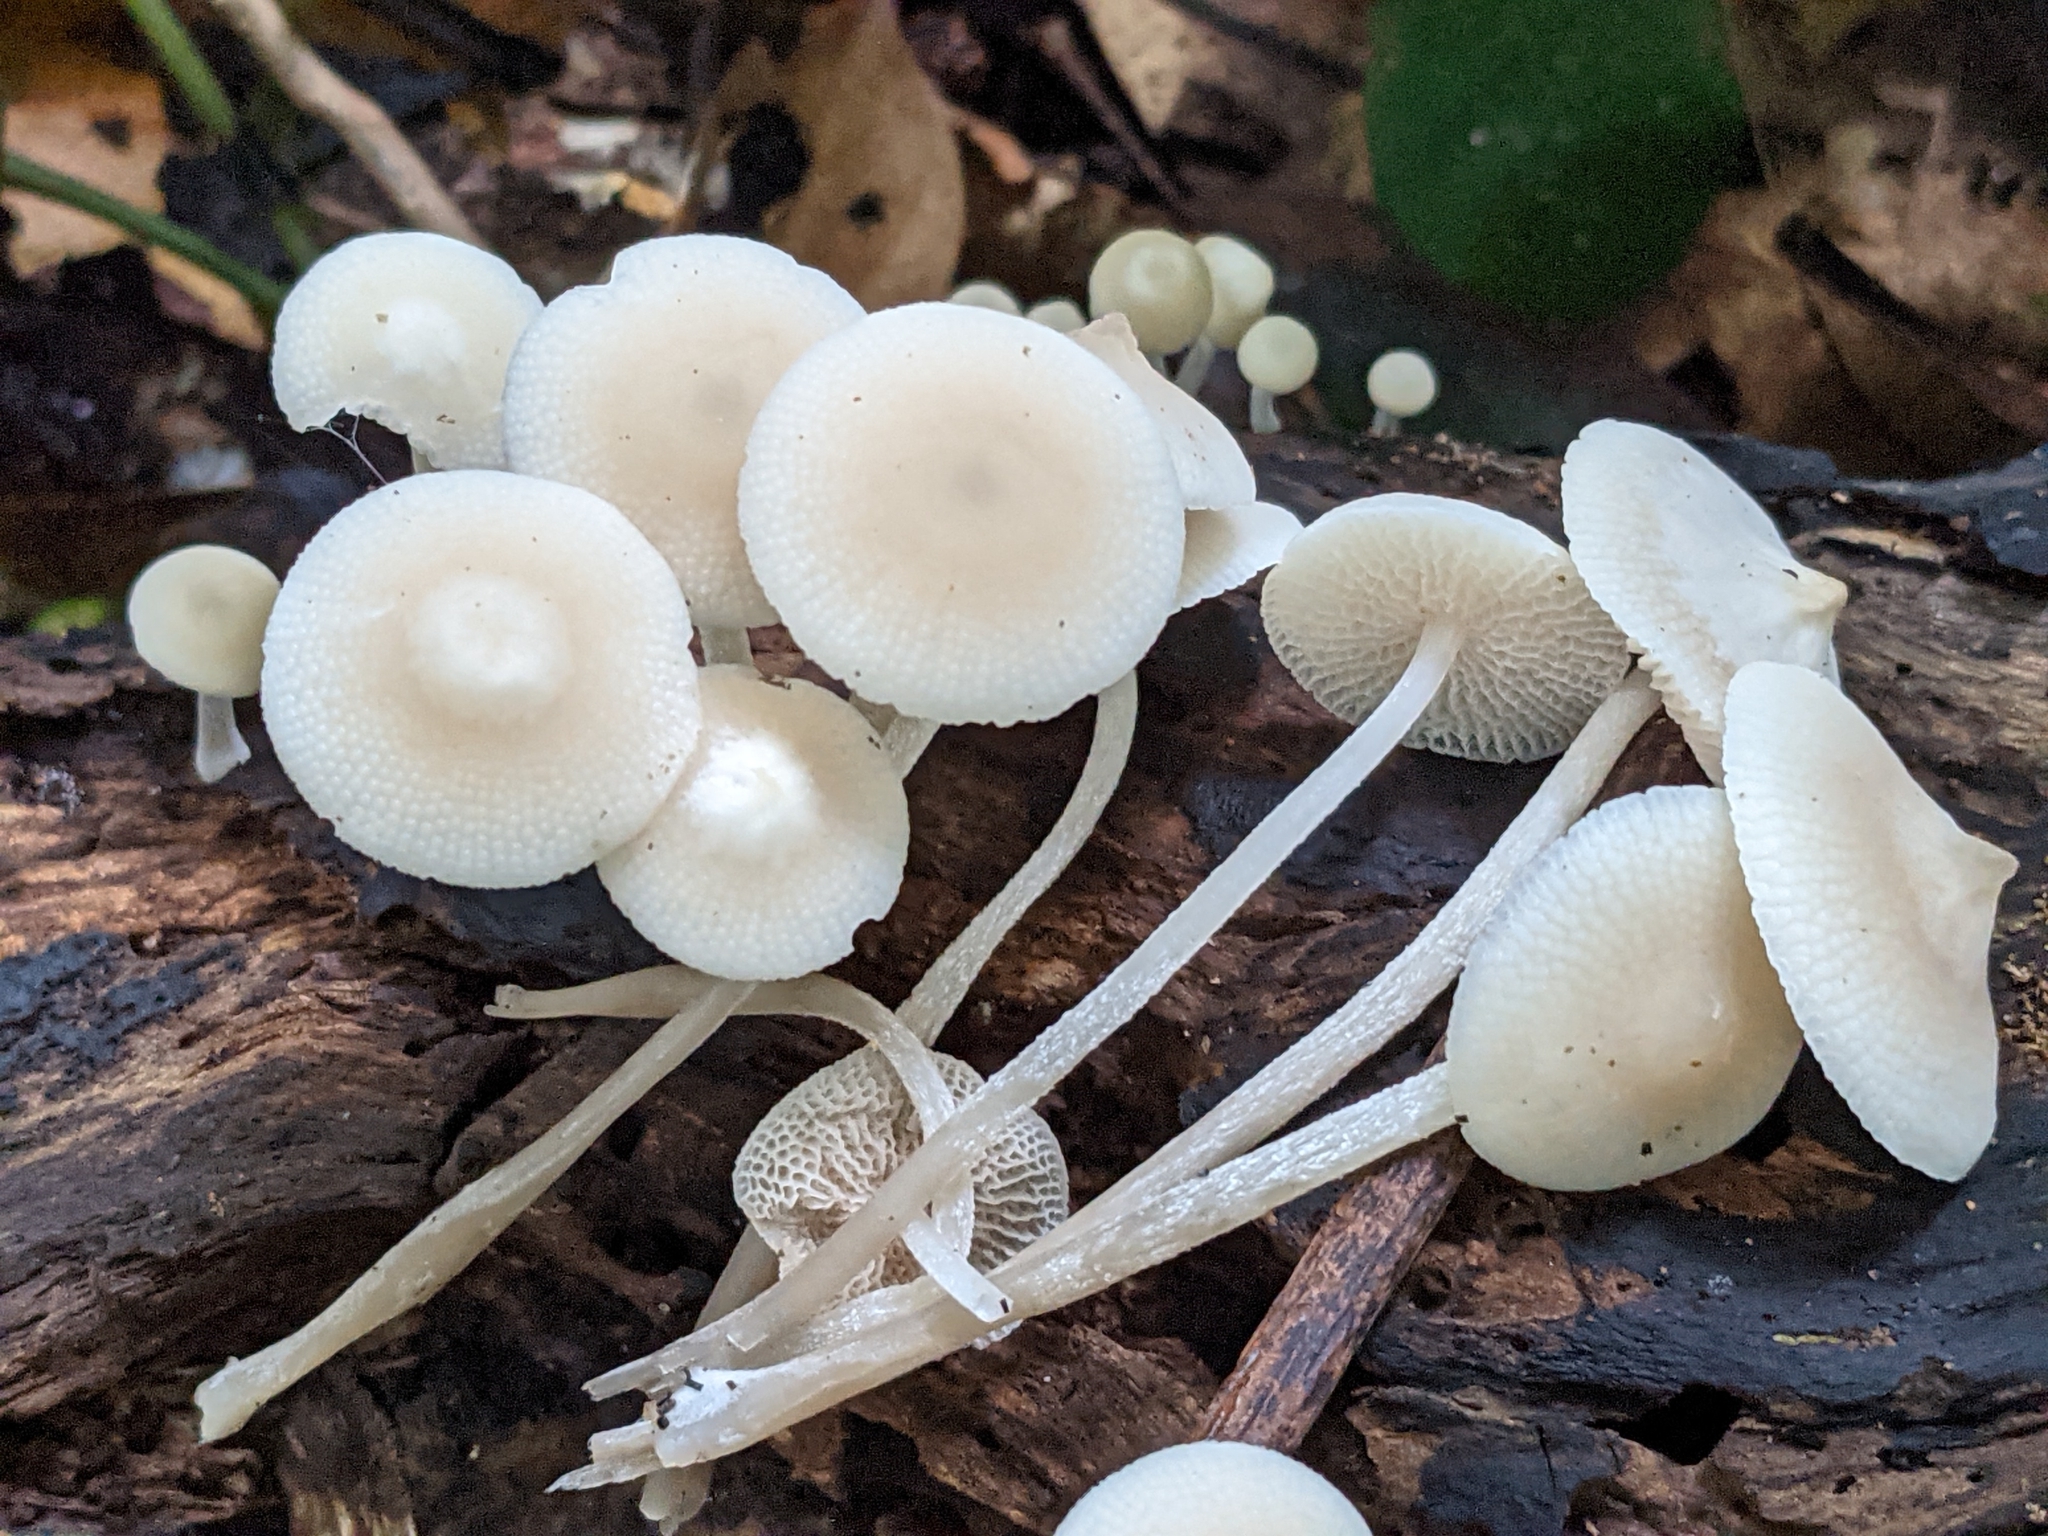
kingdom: Fungi
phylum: Basidiomycota
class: Agaricomycetes
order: Agaricales
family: Mycenaceae
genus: Filoboletus
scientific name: Filoboletus manipularis
